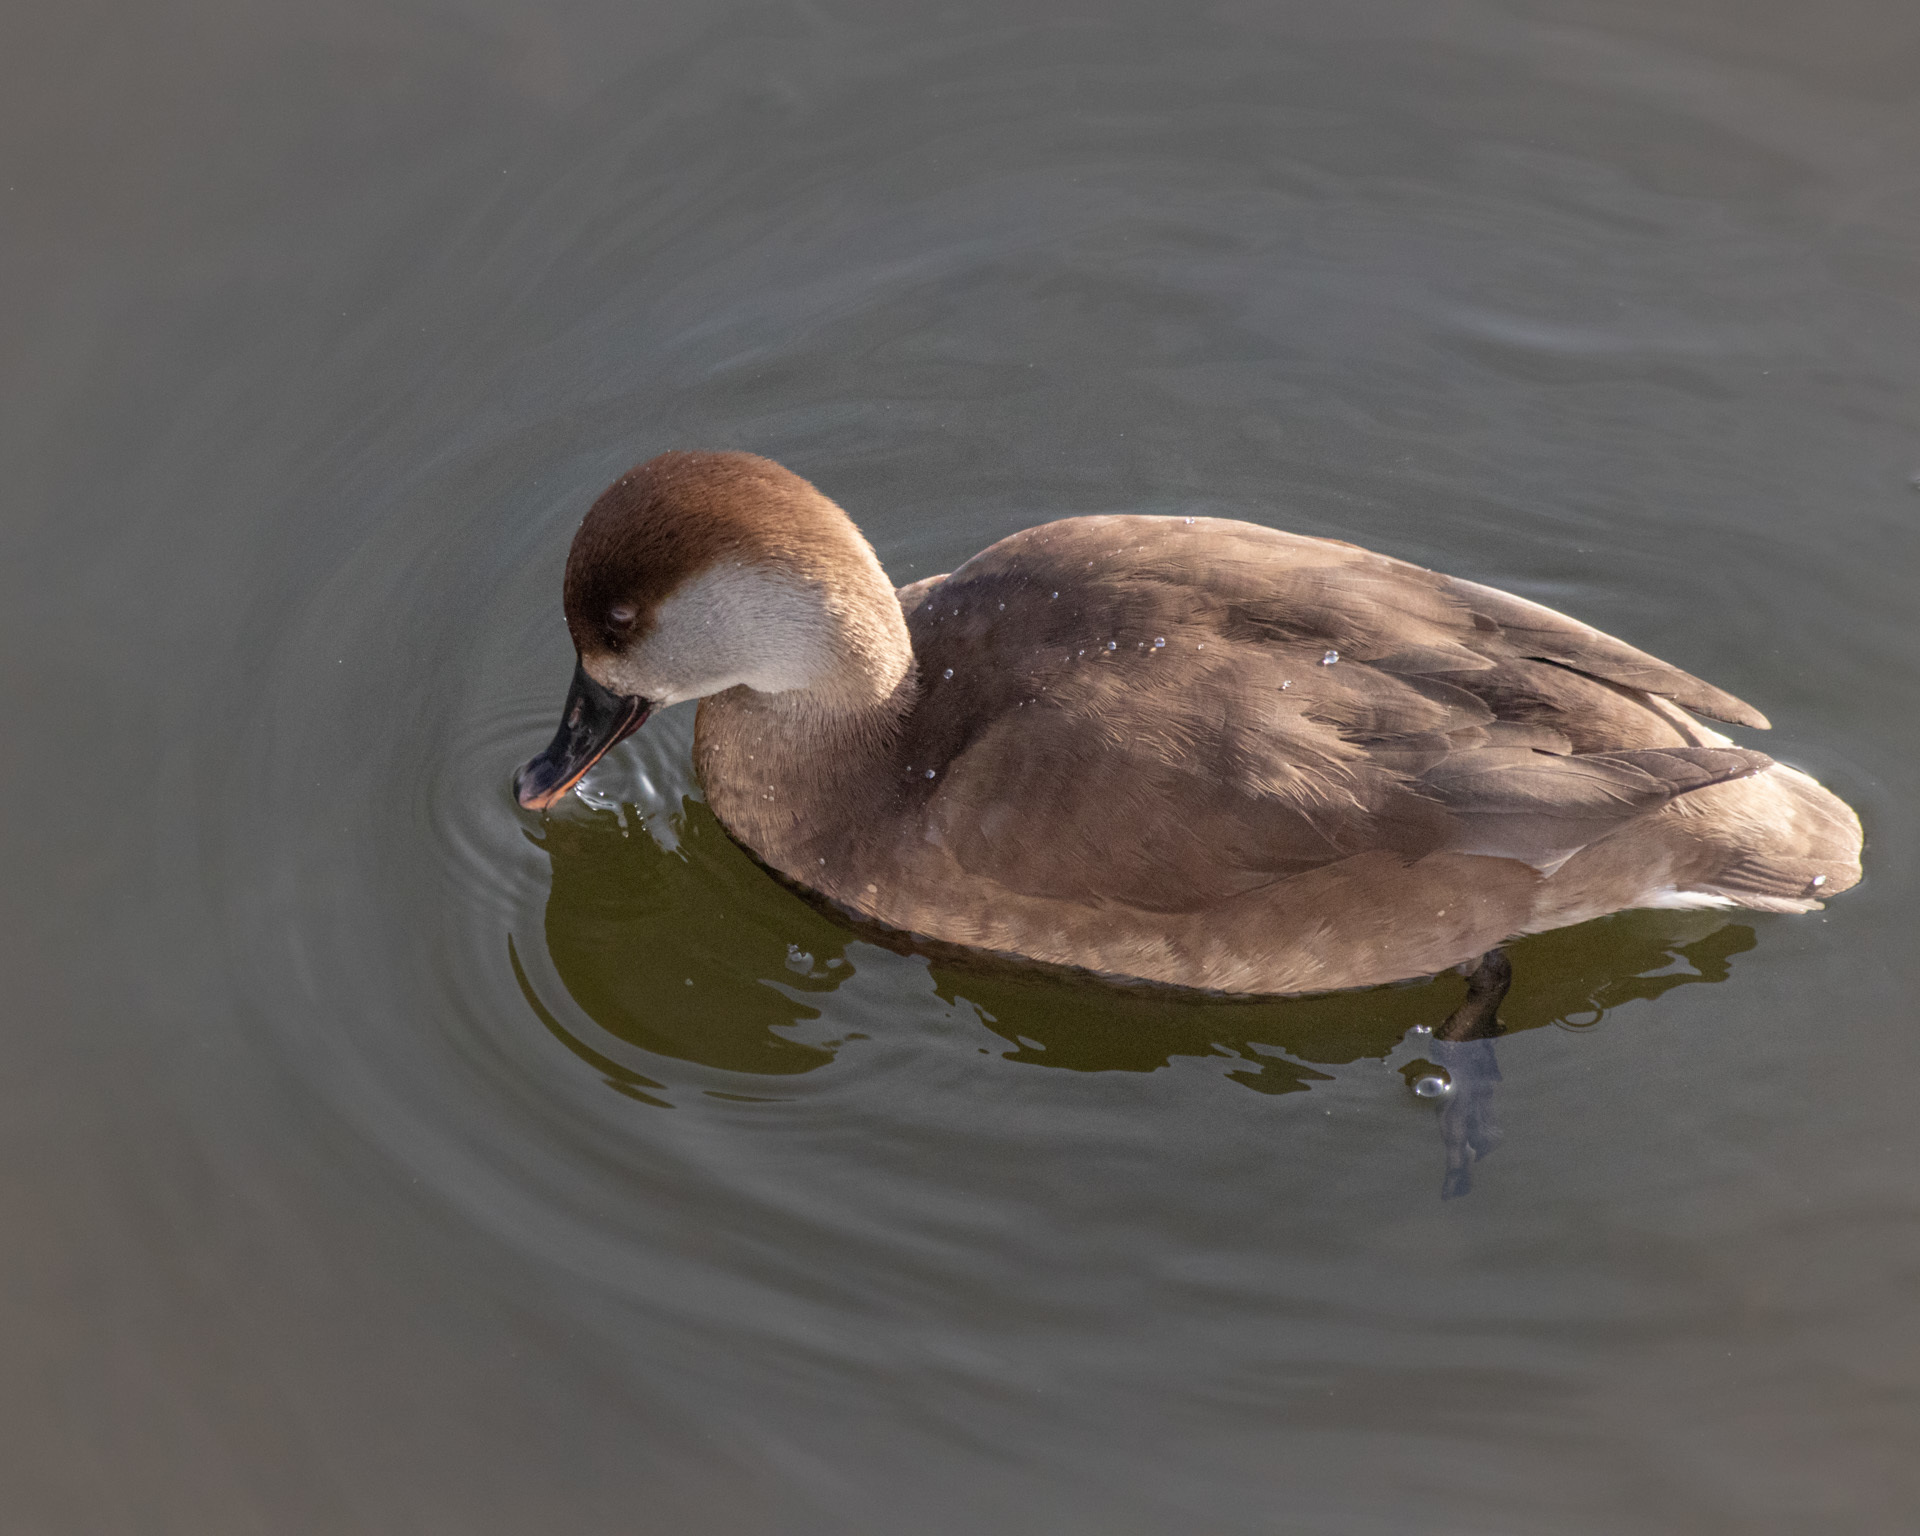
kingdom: Animalia
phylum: Chordata
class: Aves
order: Anseriformes
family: Anatidae
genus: Netta
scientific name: Netta rufina
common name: Red-crested pochard
